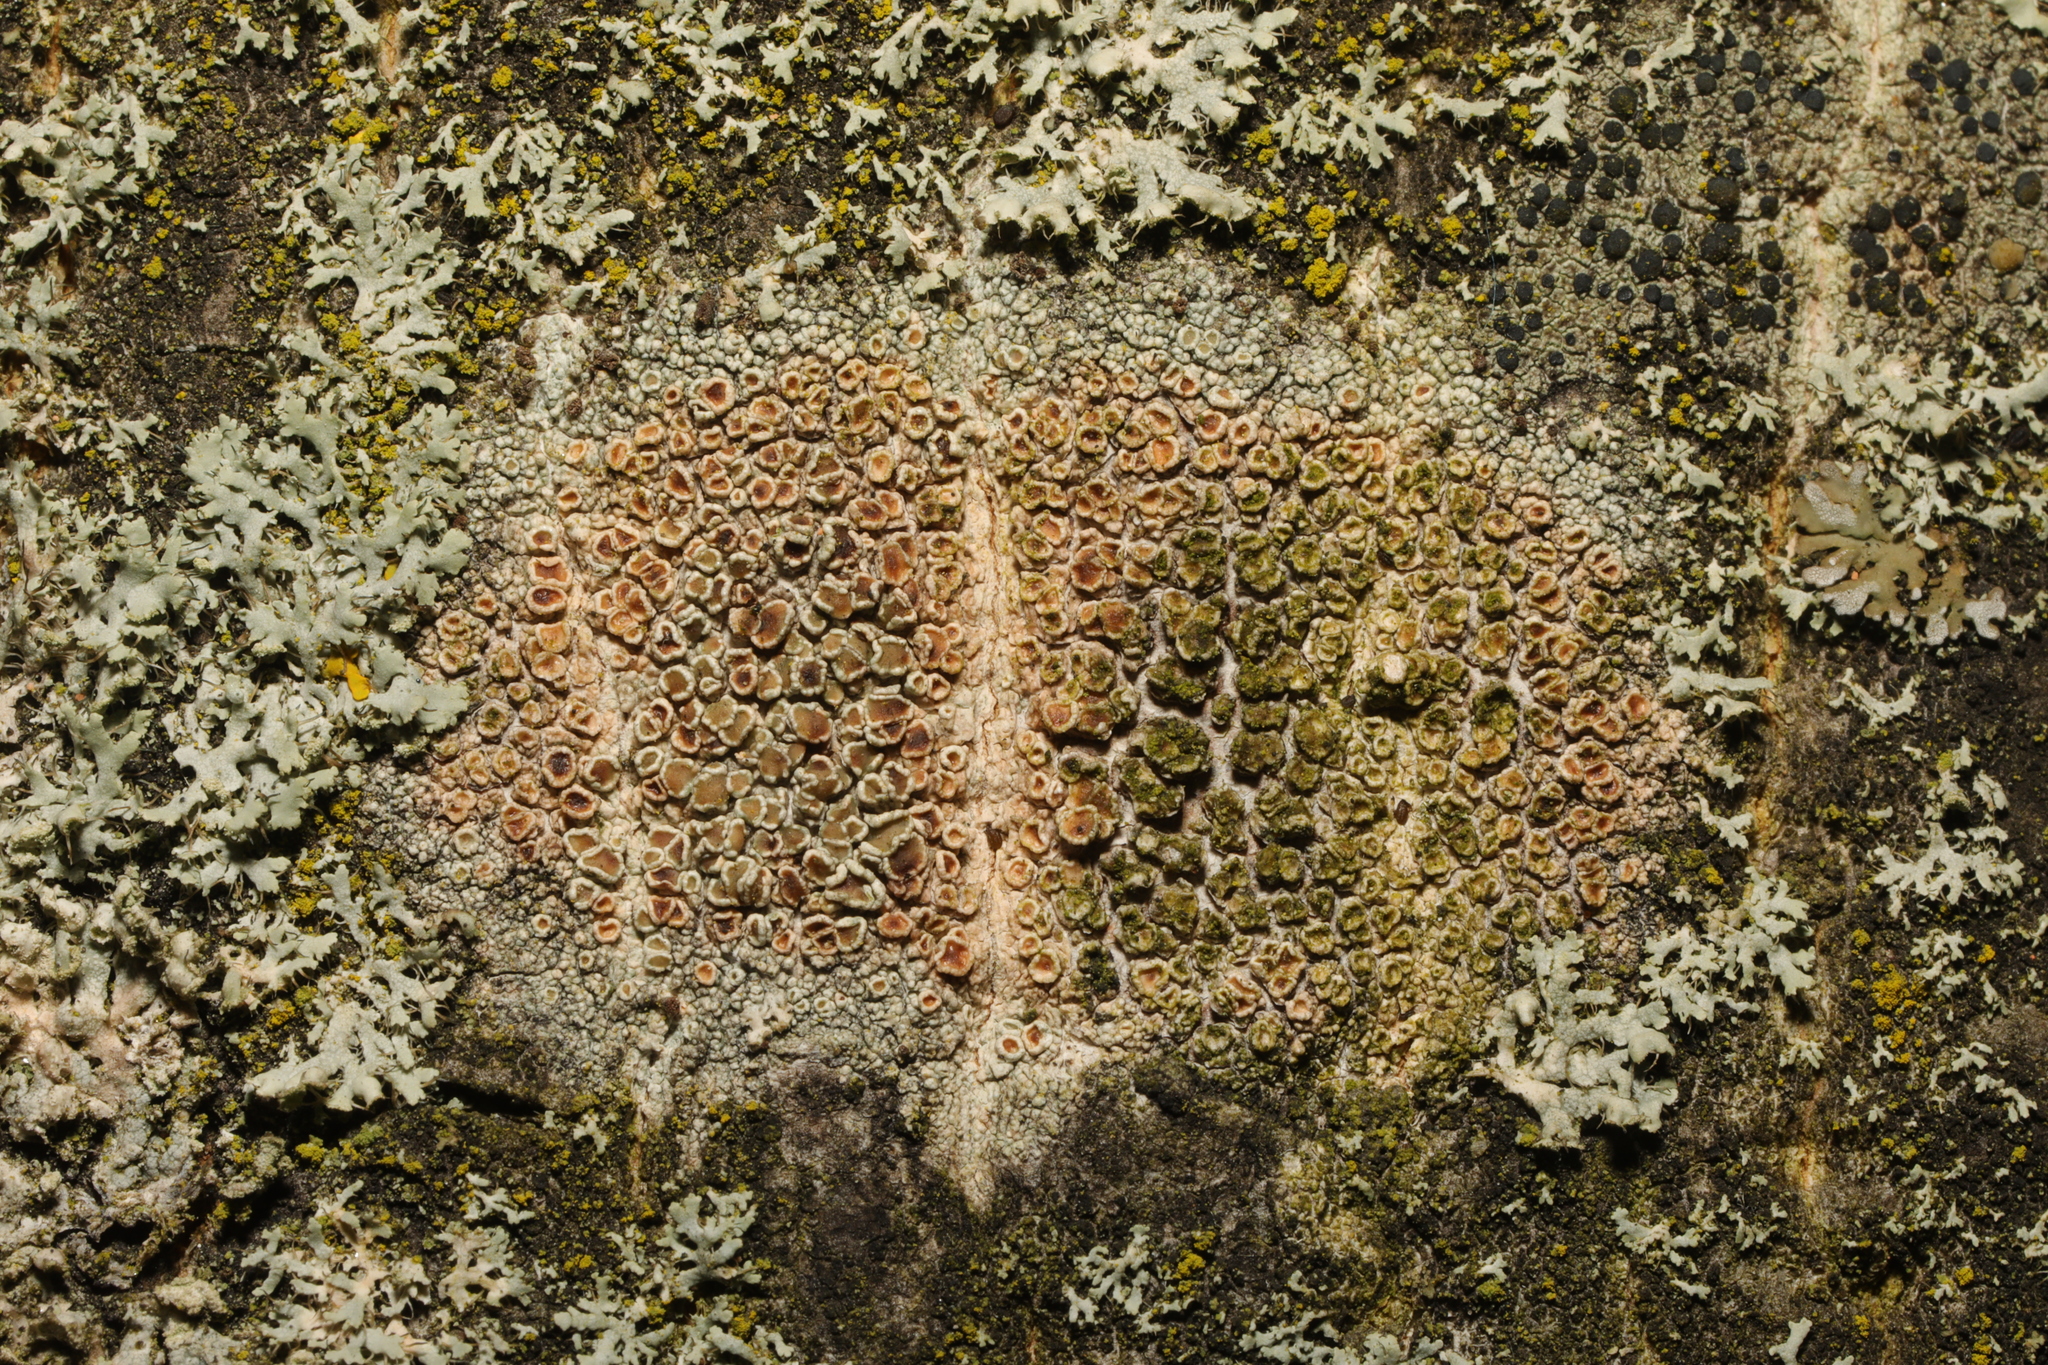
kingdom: Fungi
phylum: Ascomycota
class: Lecanoromycetes
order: Lecanorales
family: Lecanoraceae
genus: Lecanora
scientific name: Lecanora chlarotera
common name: Brown rim-lichen
